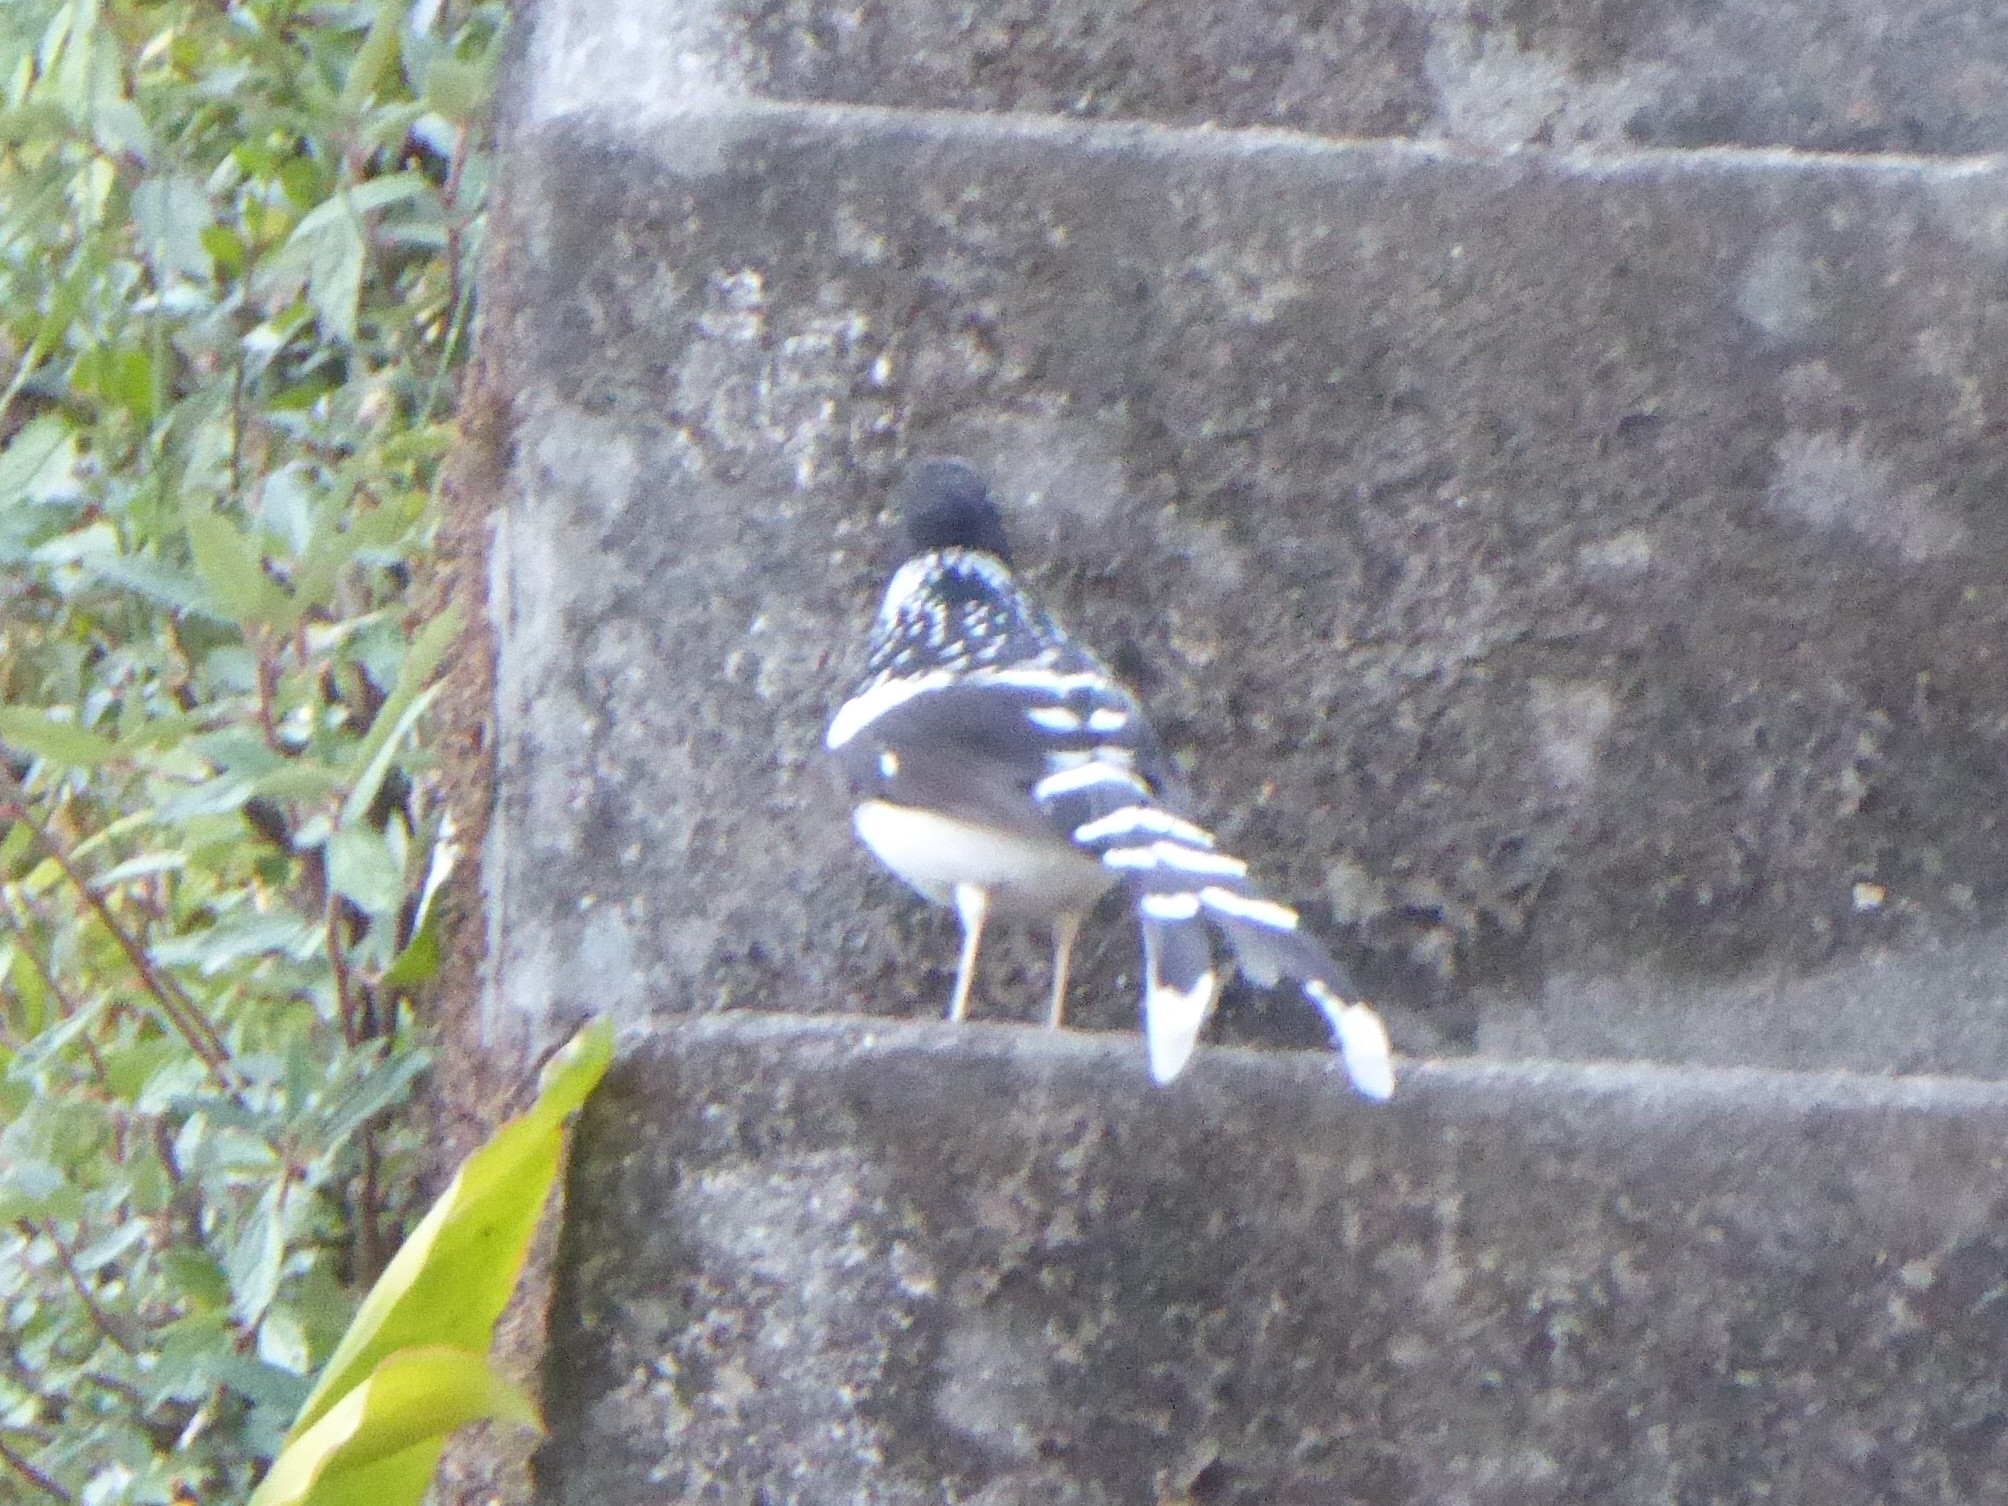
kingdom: Animalia
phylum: Chordata
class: Aves
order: Passeriformes
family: Muscicapidae
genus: Enicurus
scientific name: Enicurus maculatus
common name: Spotted forktail
